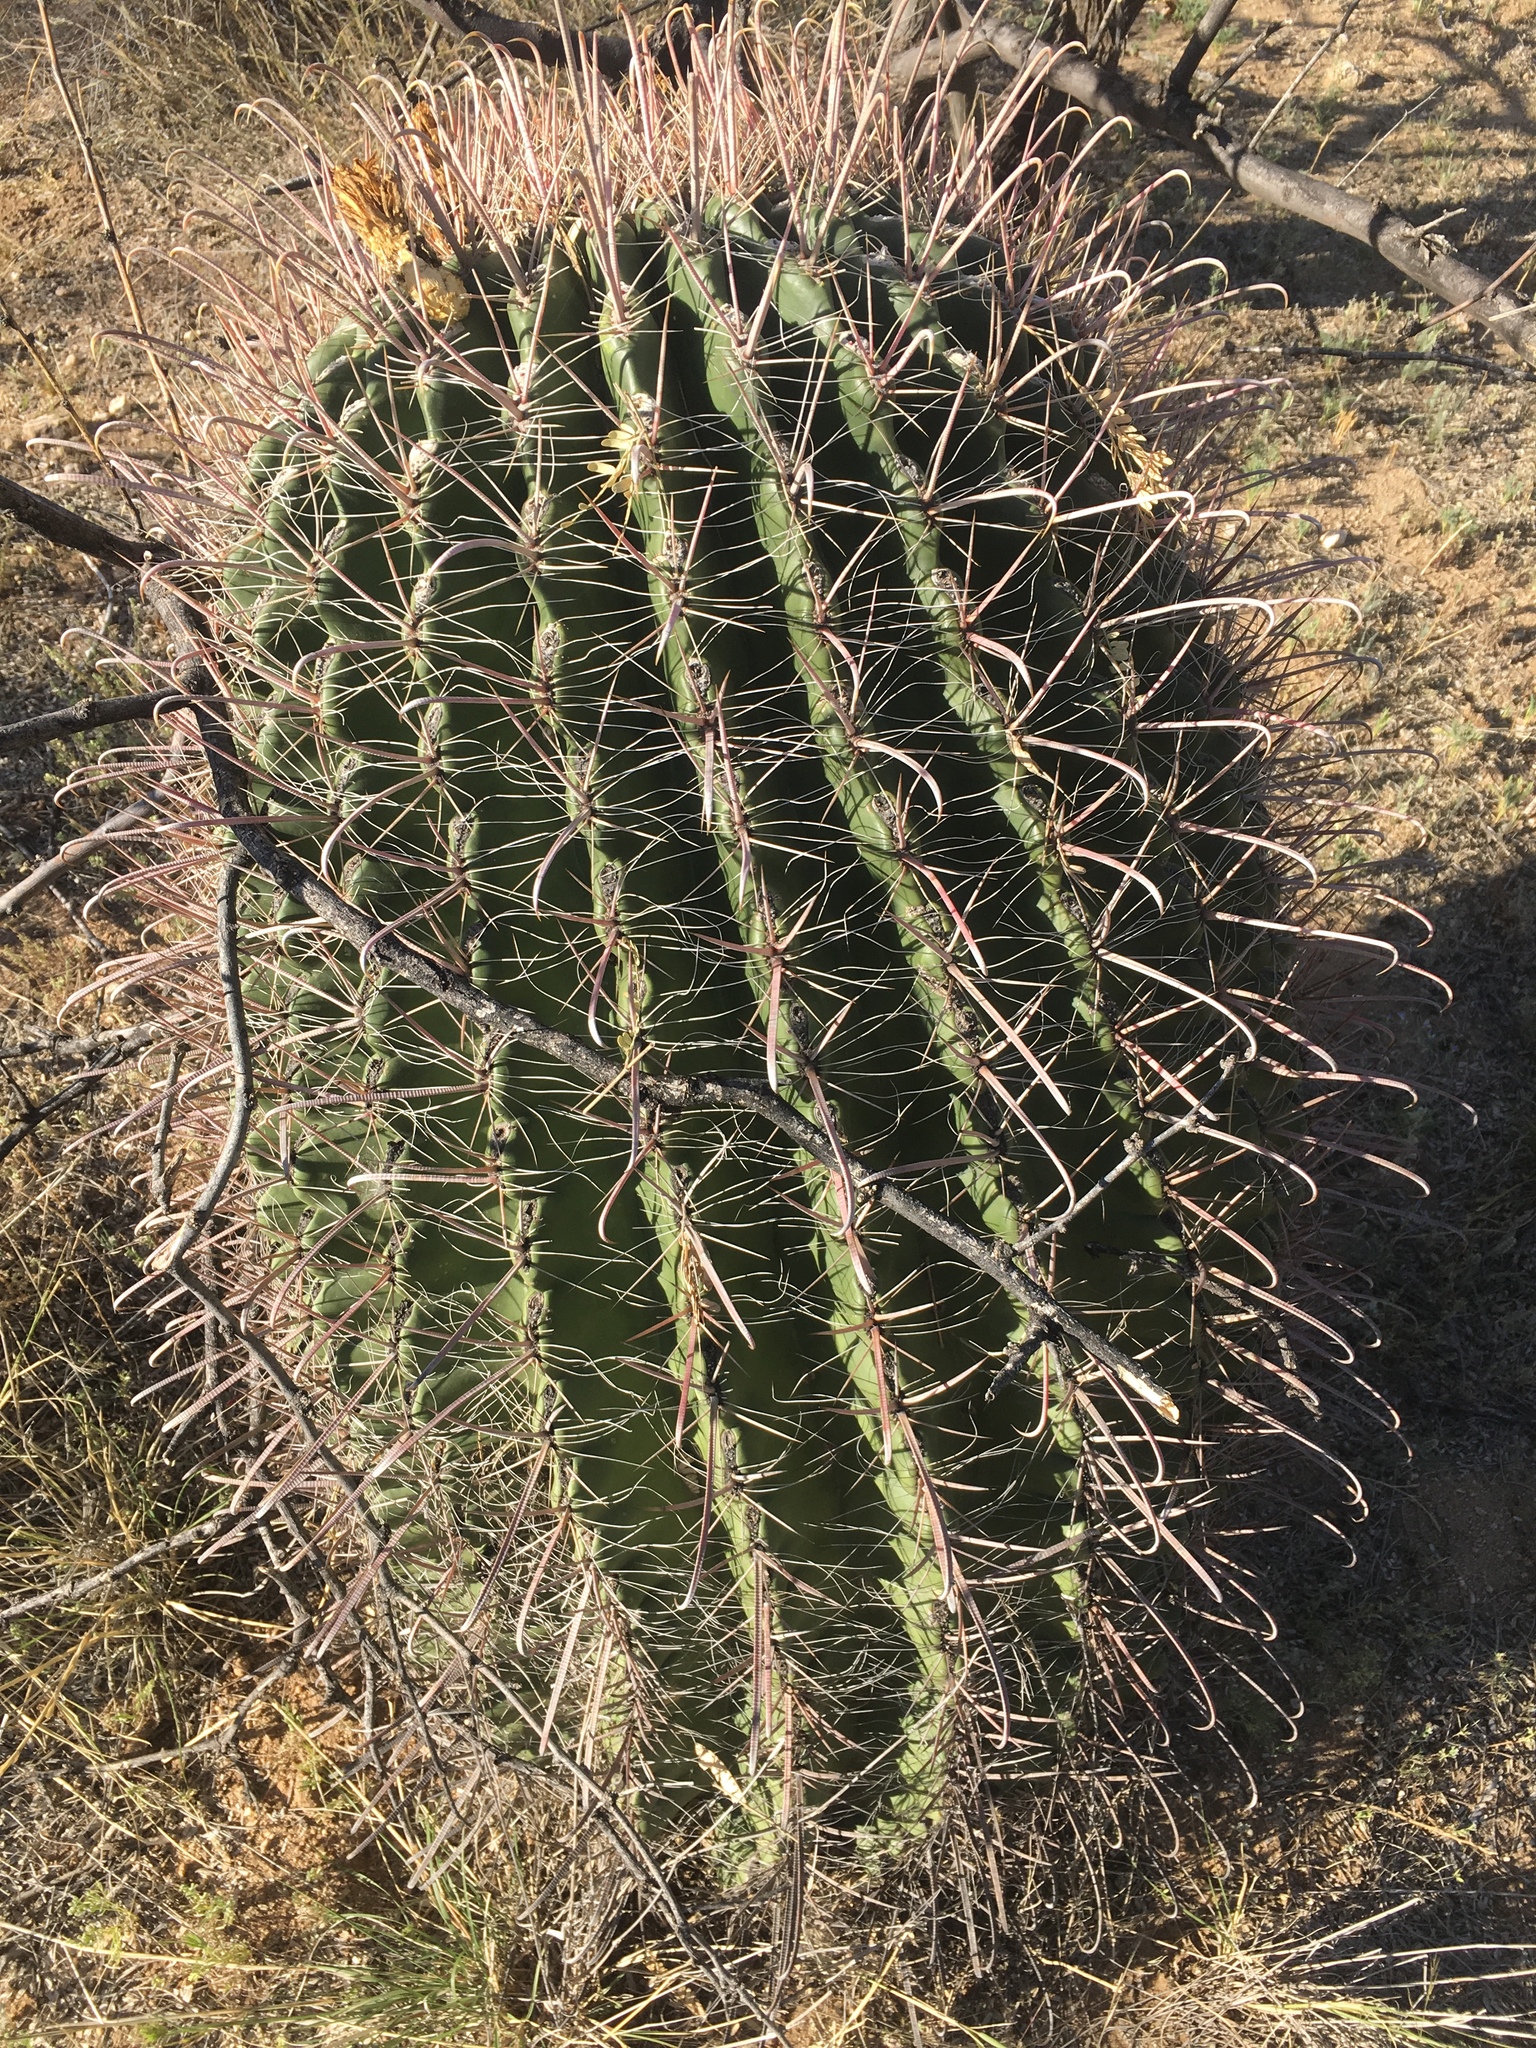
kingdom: Plantae
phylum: Tracheophyta
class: Magnoliopsida
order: Caryophyllales
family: Cactaceae
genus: Ferocactus
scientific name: Ferocactus wislizeni
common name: Candy barrel cactus
